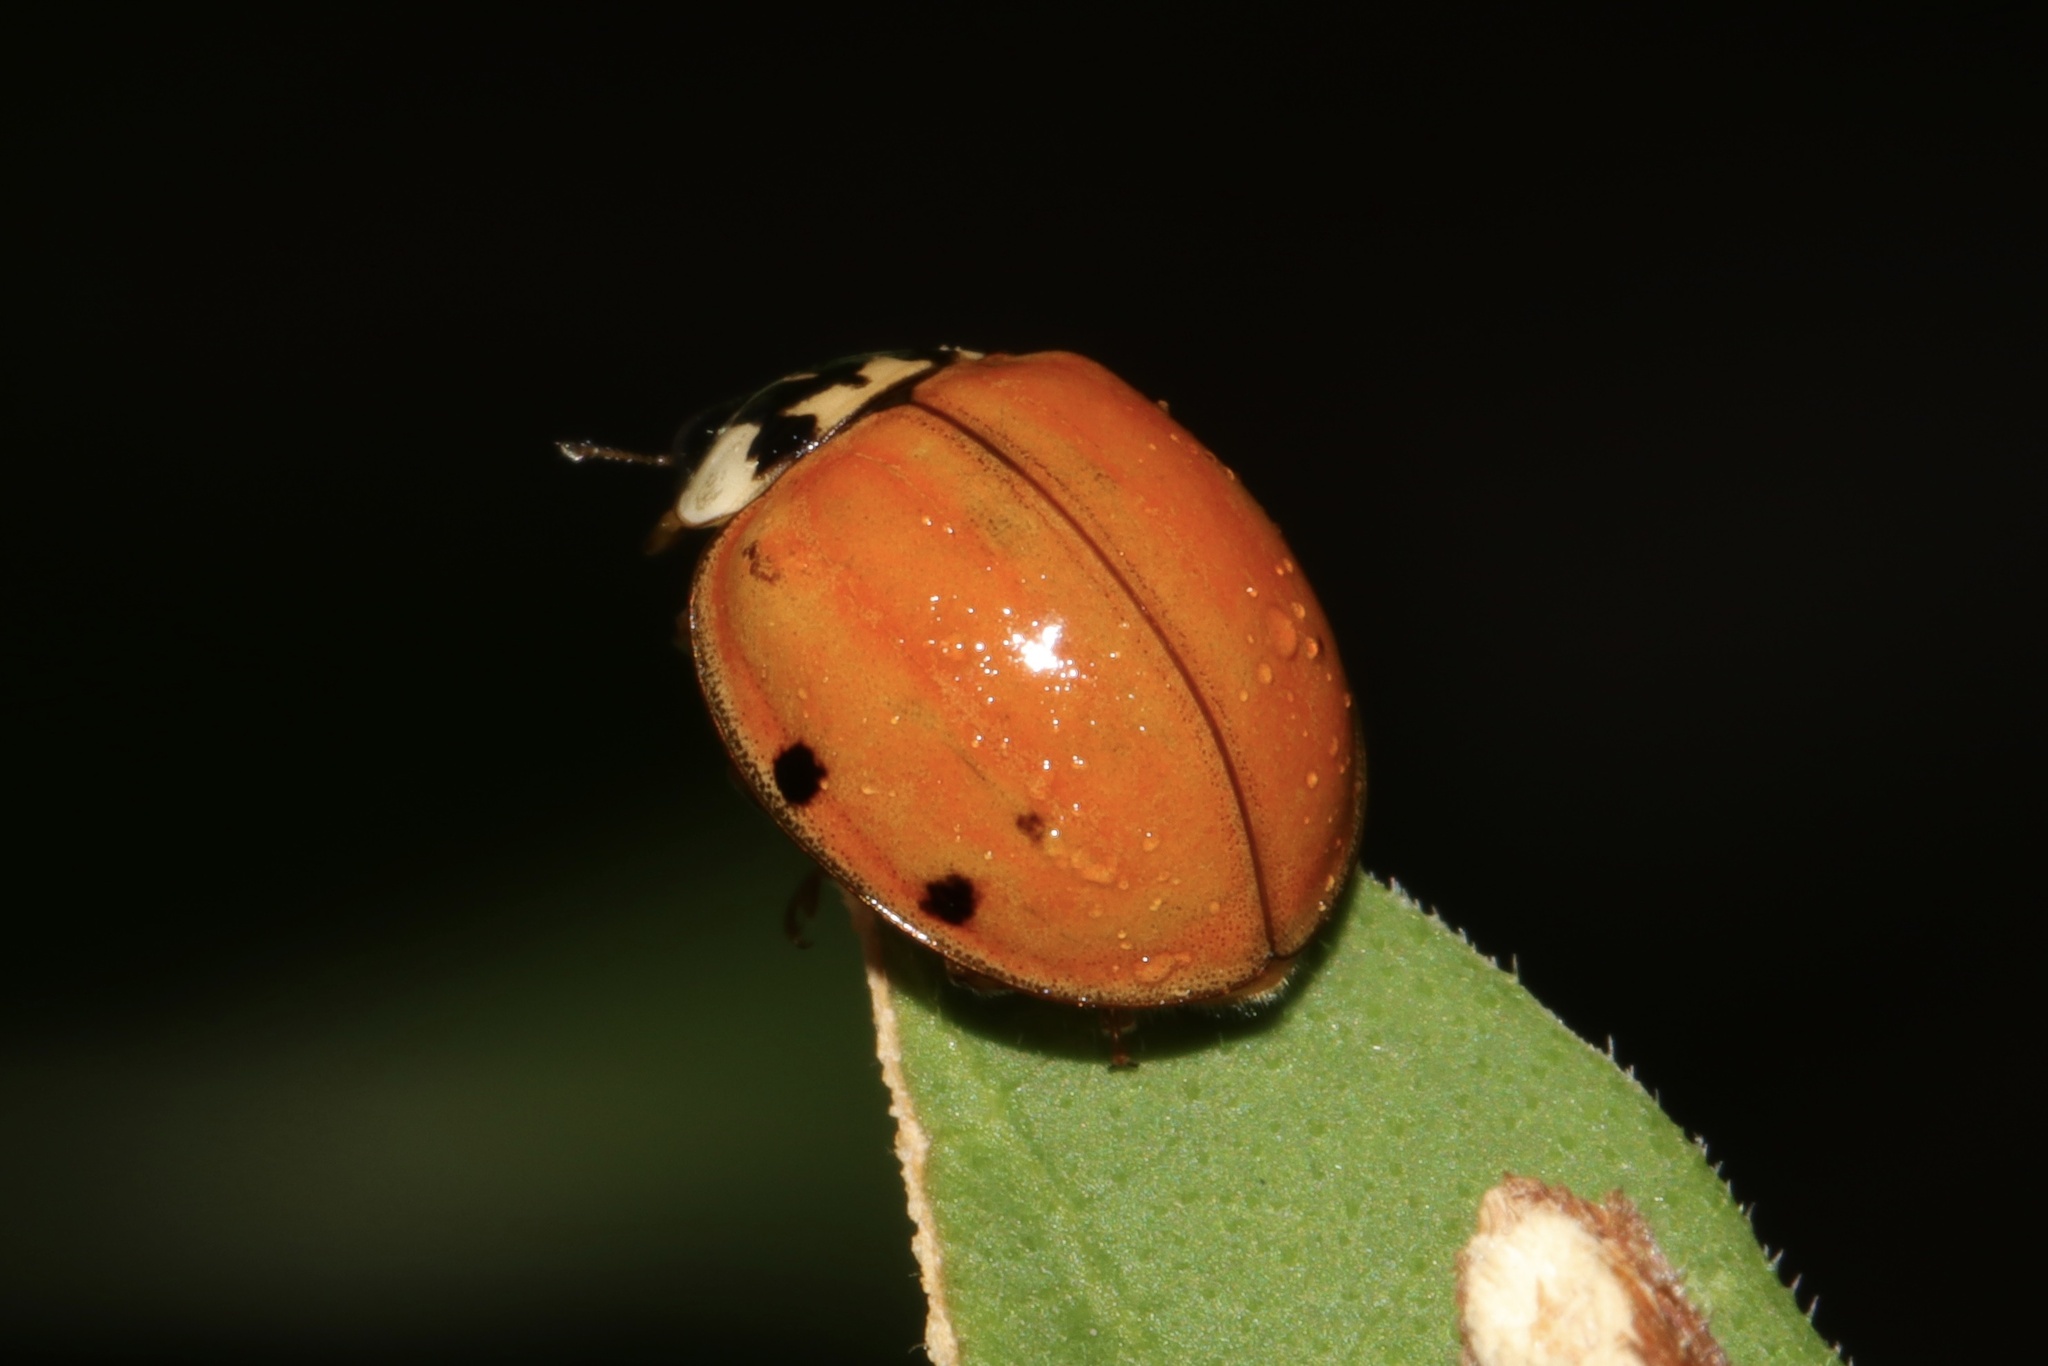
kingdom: Animalia
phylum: Arthropoda
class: Insecta
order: Coleoptera
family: Coccinellidae
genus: Harmonia
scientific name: Harmonia axyridis
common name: Harlequin ladybird
